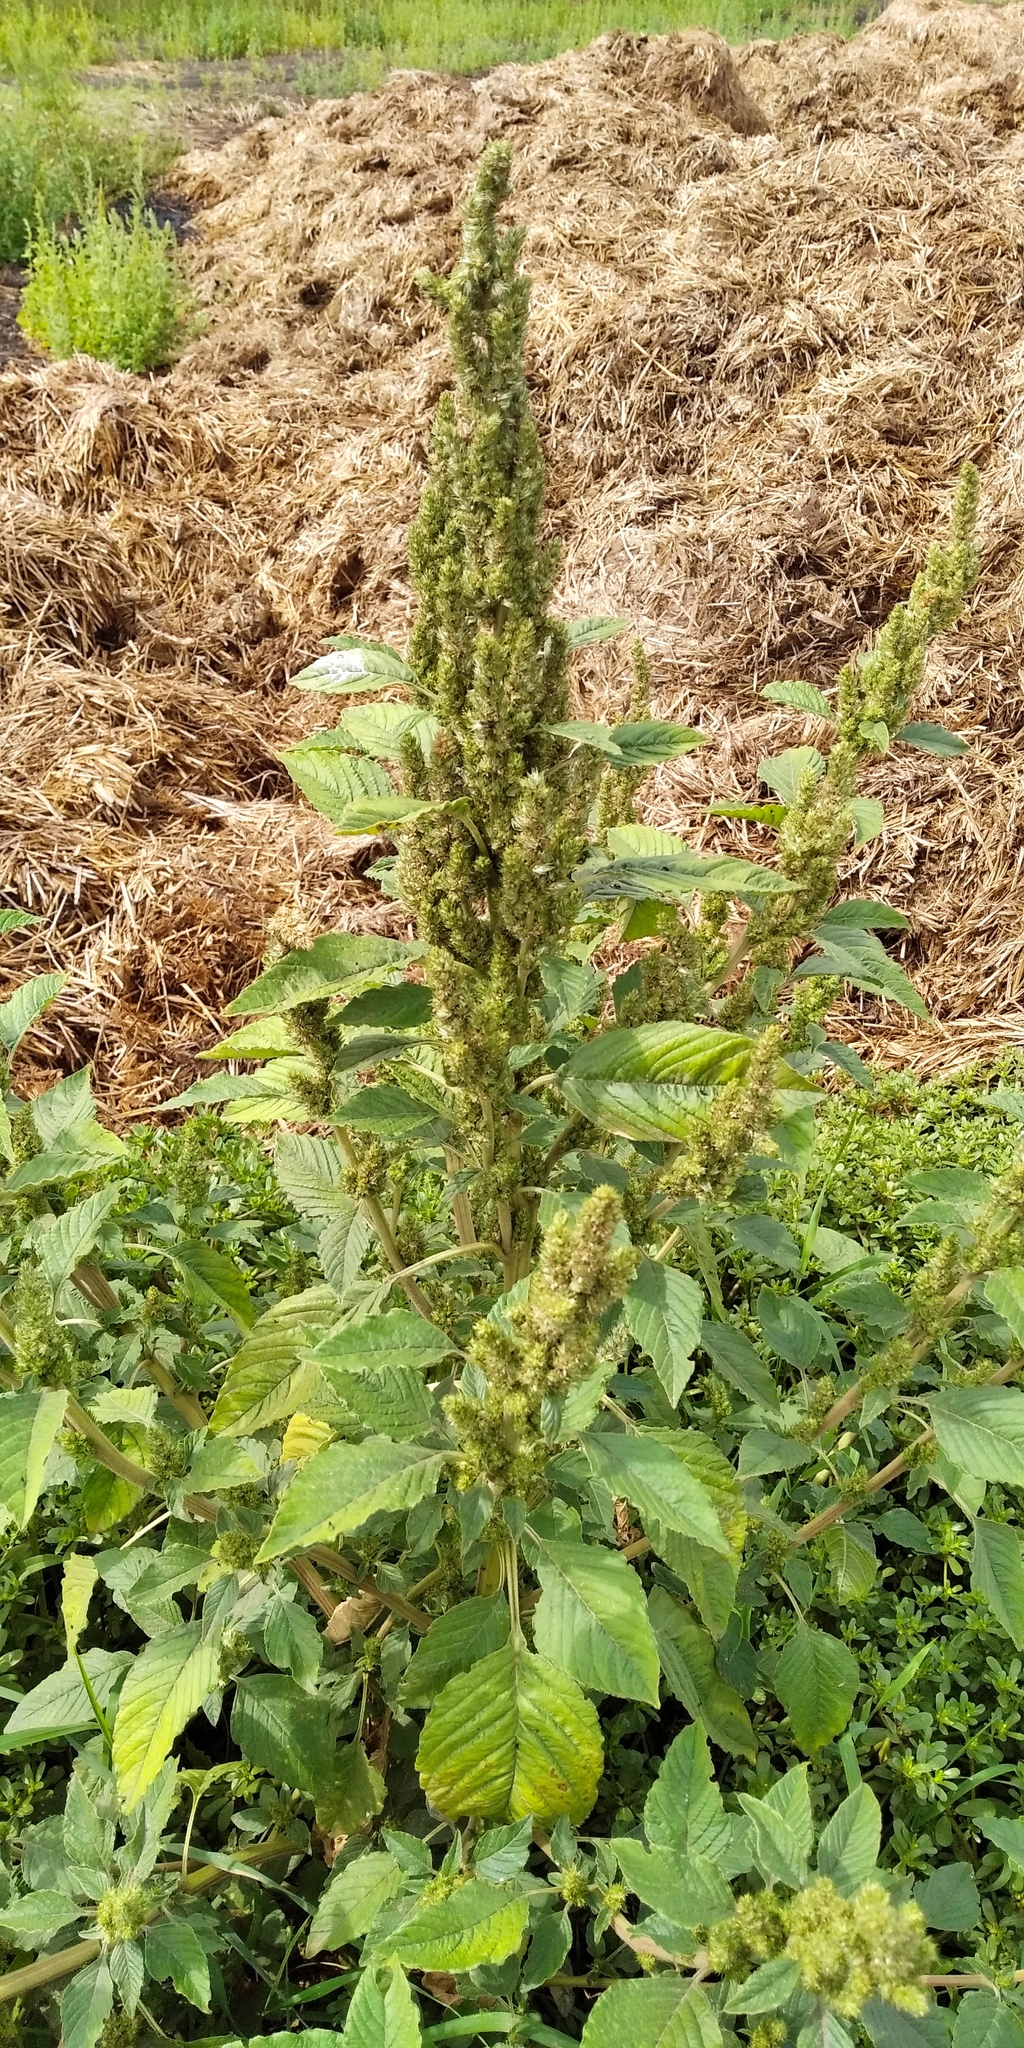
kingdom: Plantae
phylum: Tracheophyta
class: Magnoliopsida
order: Caryophyllales
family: Amaranthaceae
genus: Amaranthus
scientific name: Amaranthus retroflexus
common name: Redroot amaranth
